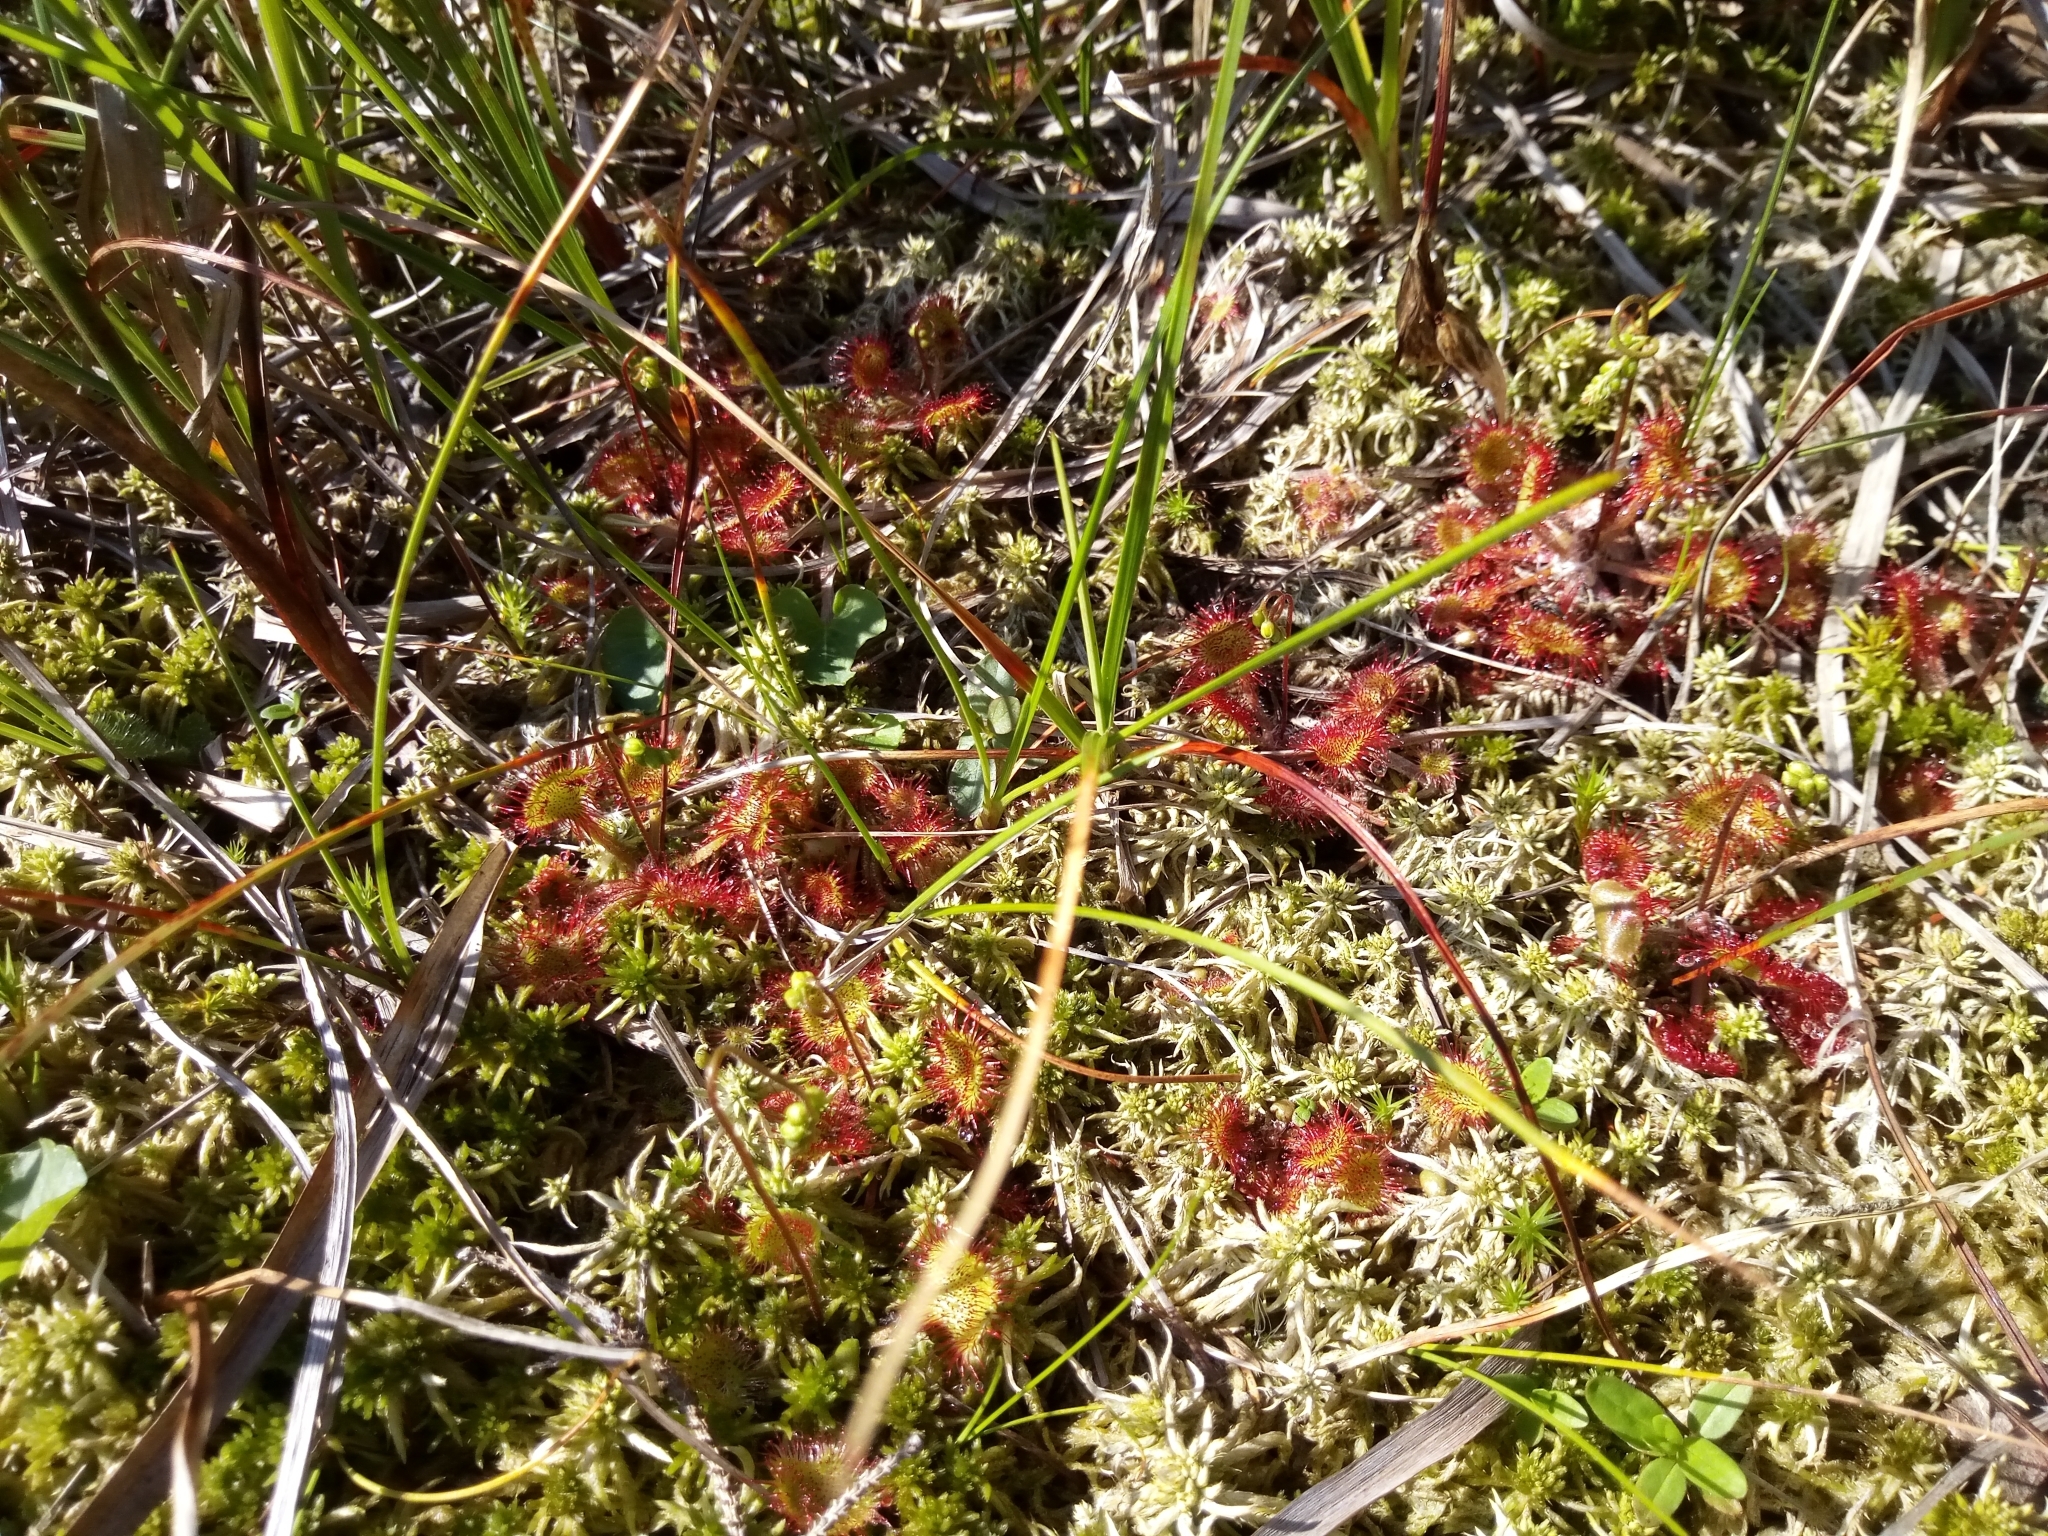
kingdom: Plantae
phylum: Tracheophyta
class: Magnoliopsida
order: Caryophyllales
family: Droseraceae
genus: Drosera
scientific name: Drosera rotundifolia
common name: Round-leaved sundew
